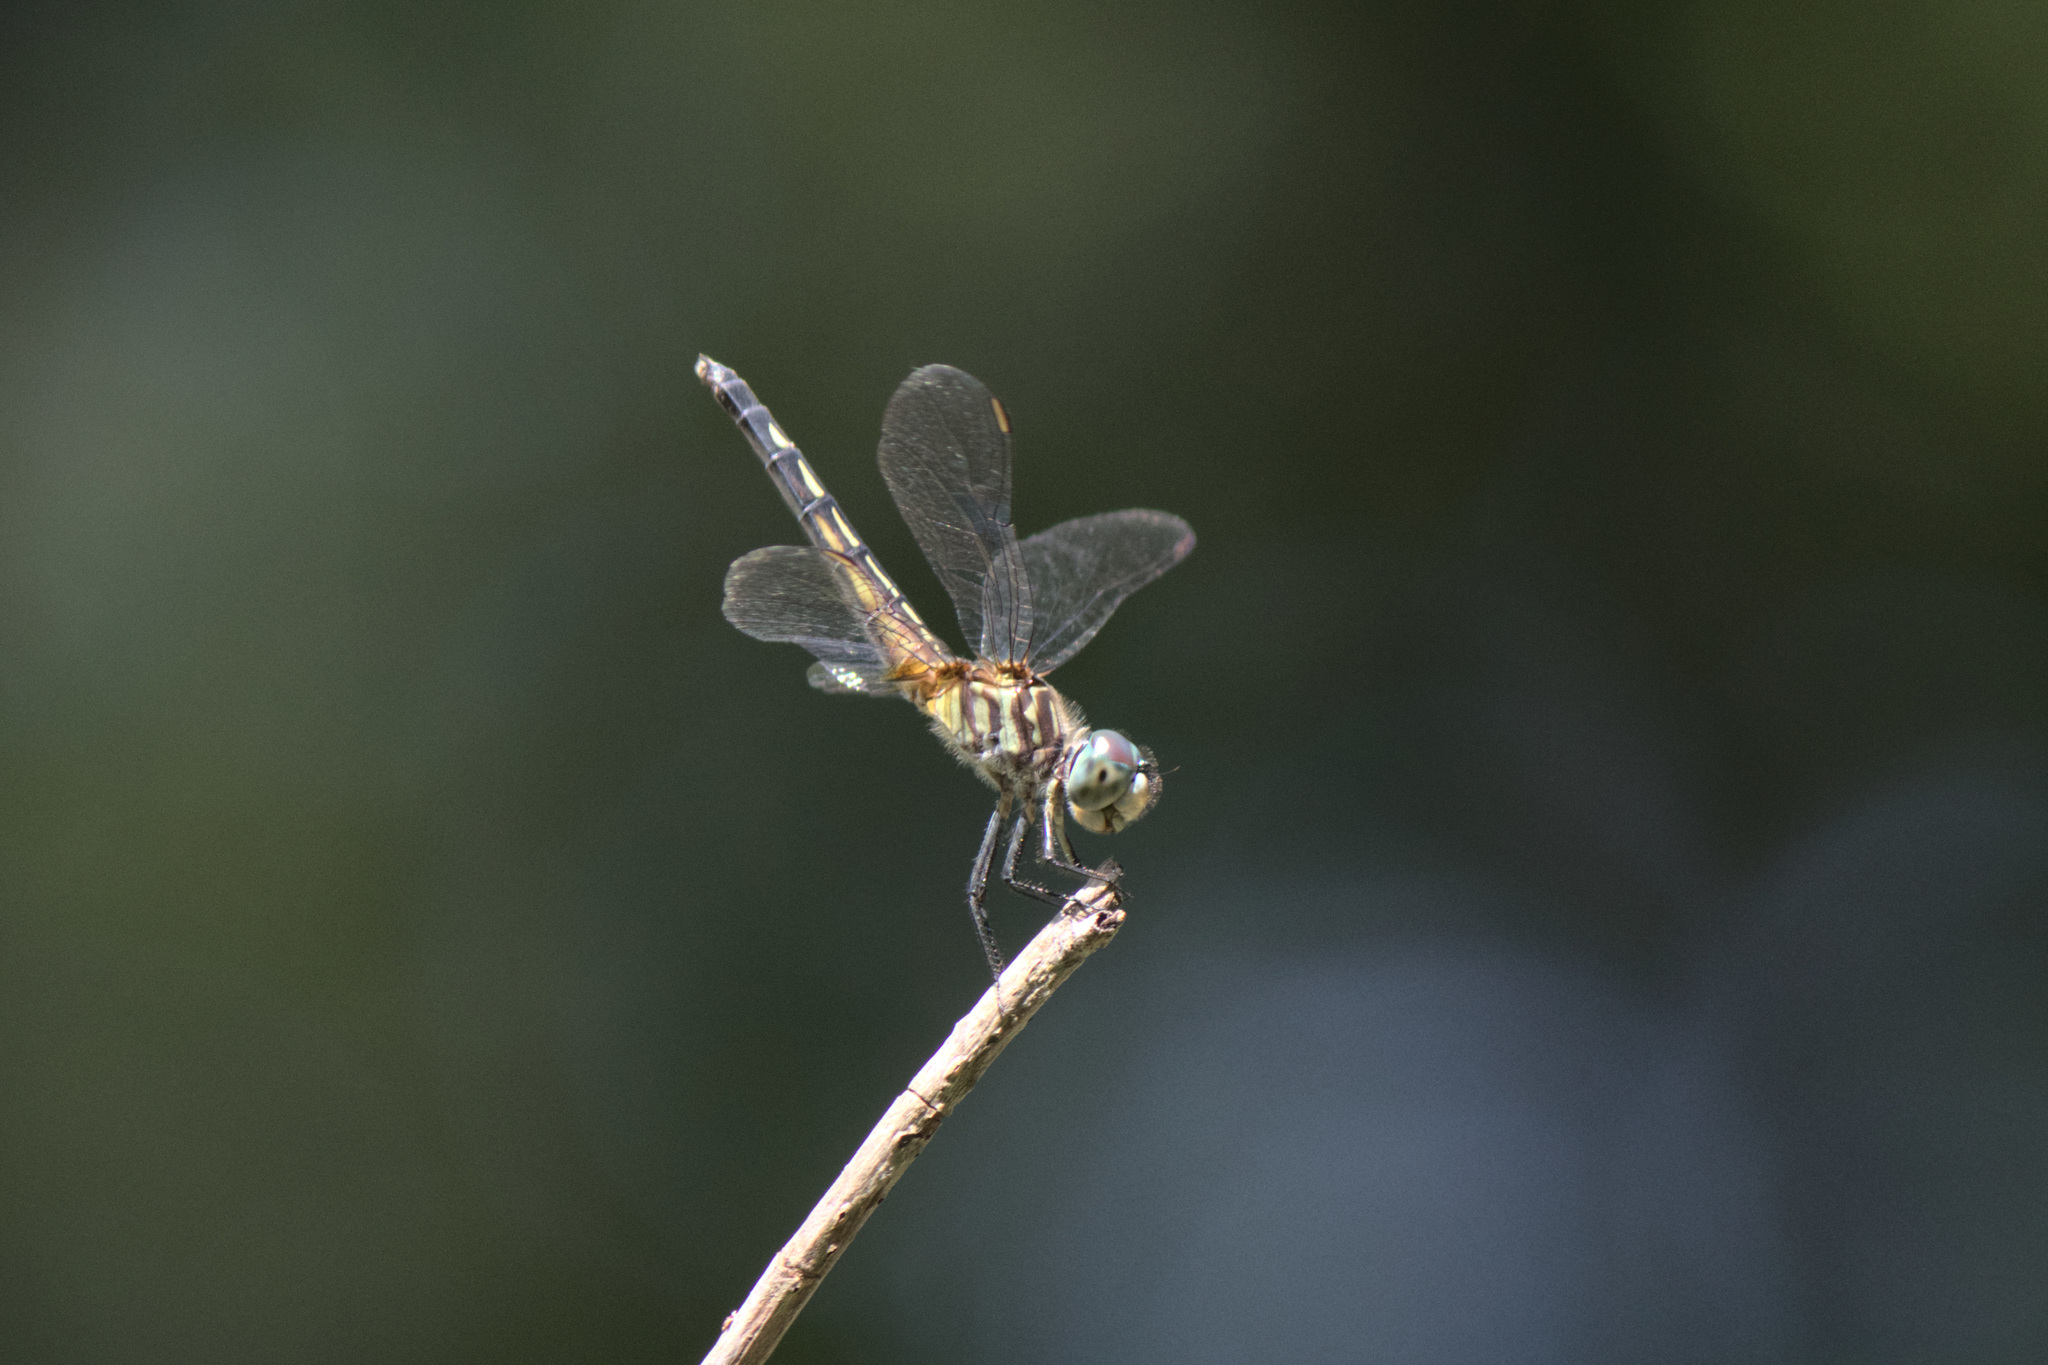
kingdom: Animalia
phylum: Arthropoda
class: Insecta
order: Odonata
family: Libellulidae
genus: Pachydiplax
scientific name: Pachydiplax longipennis
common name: Blue dasher
